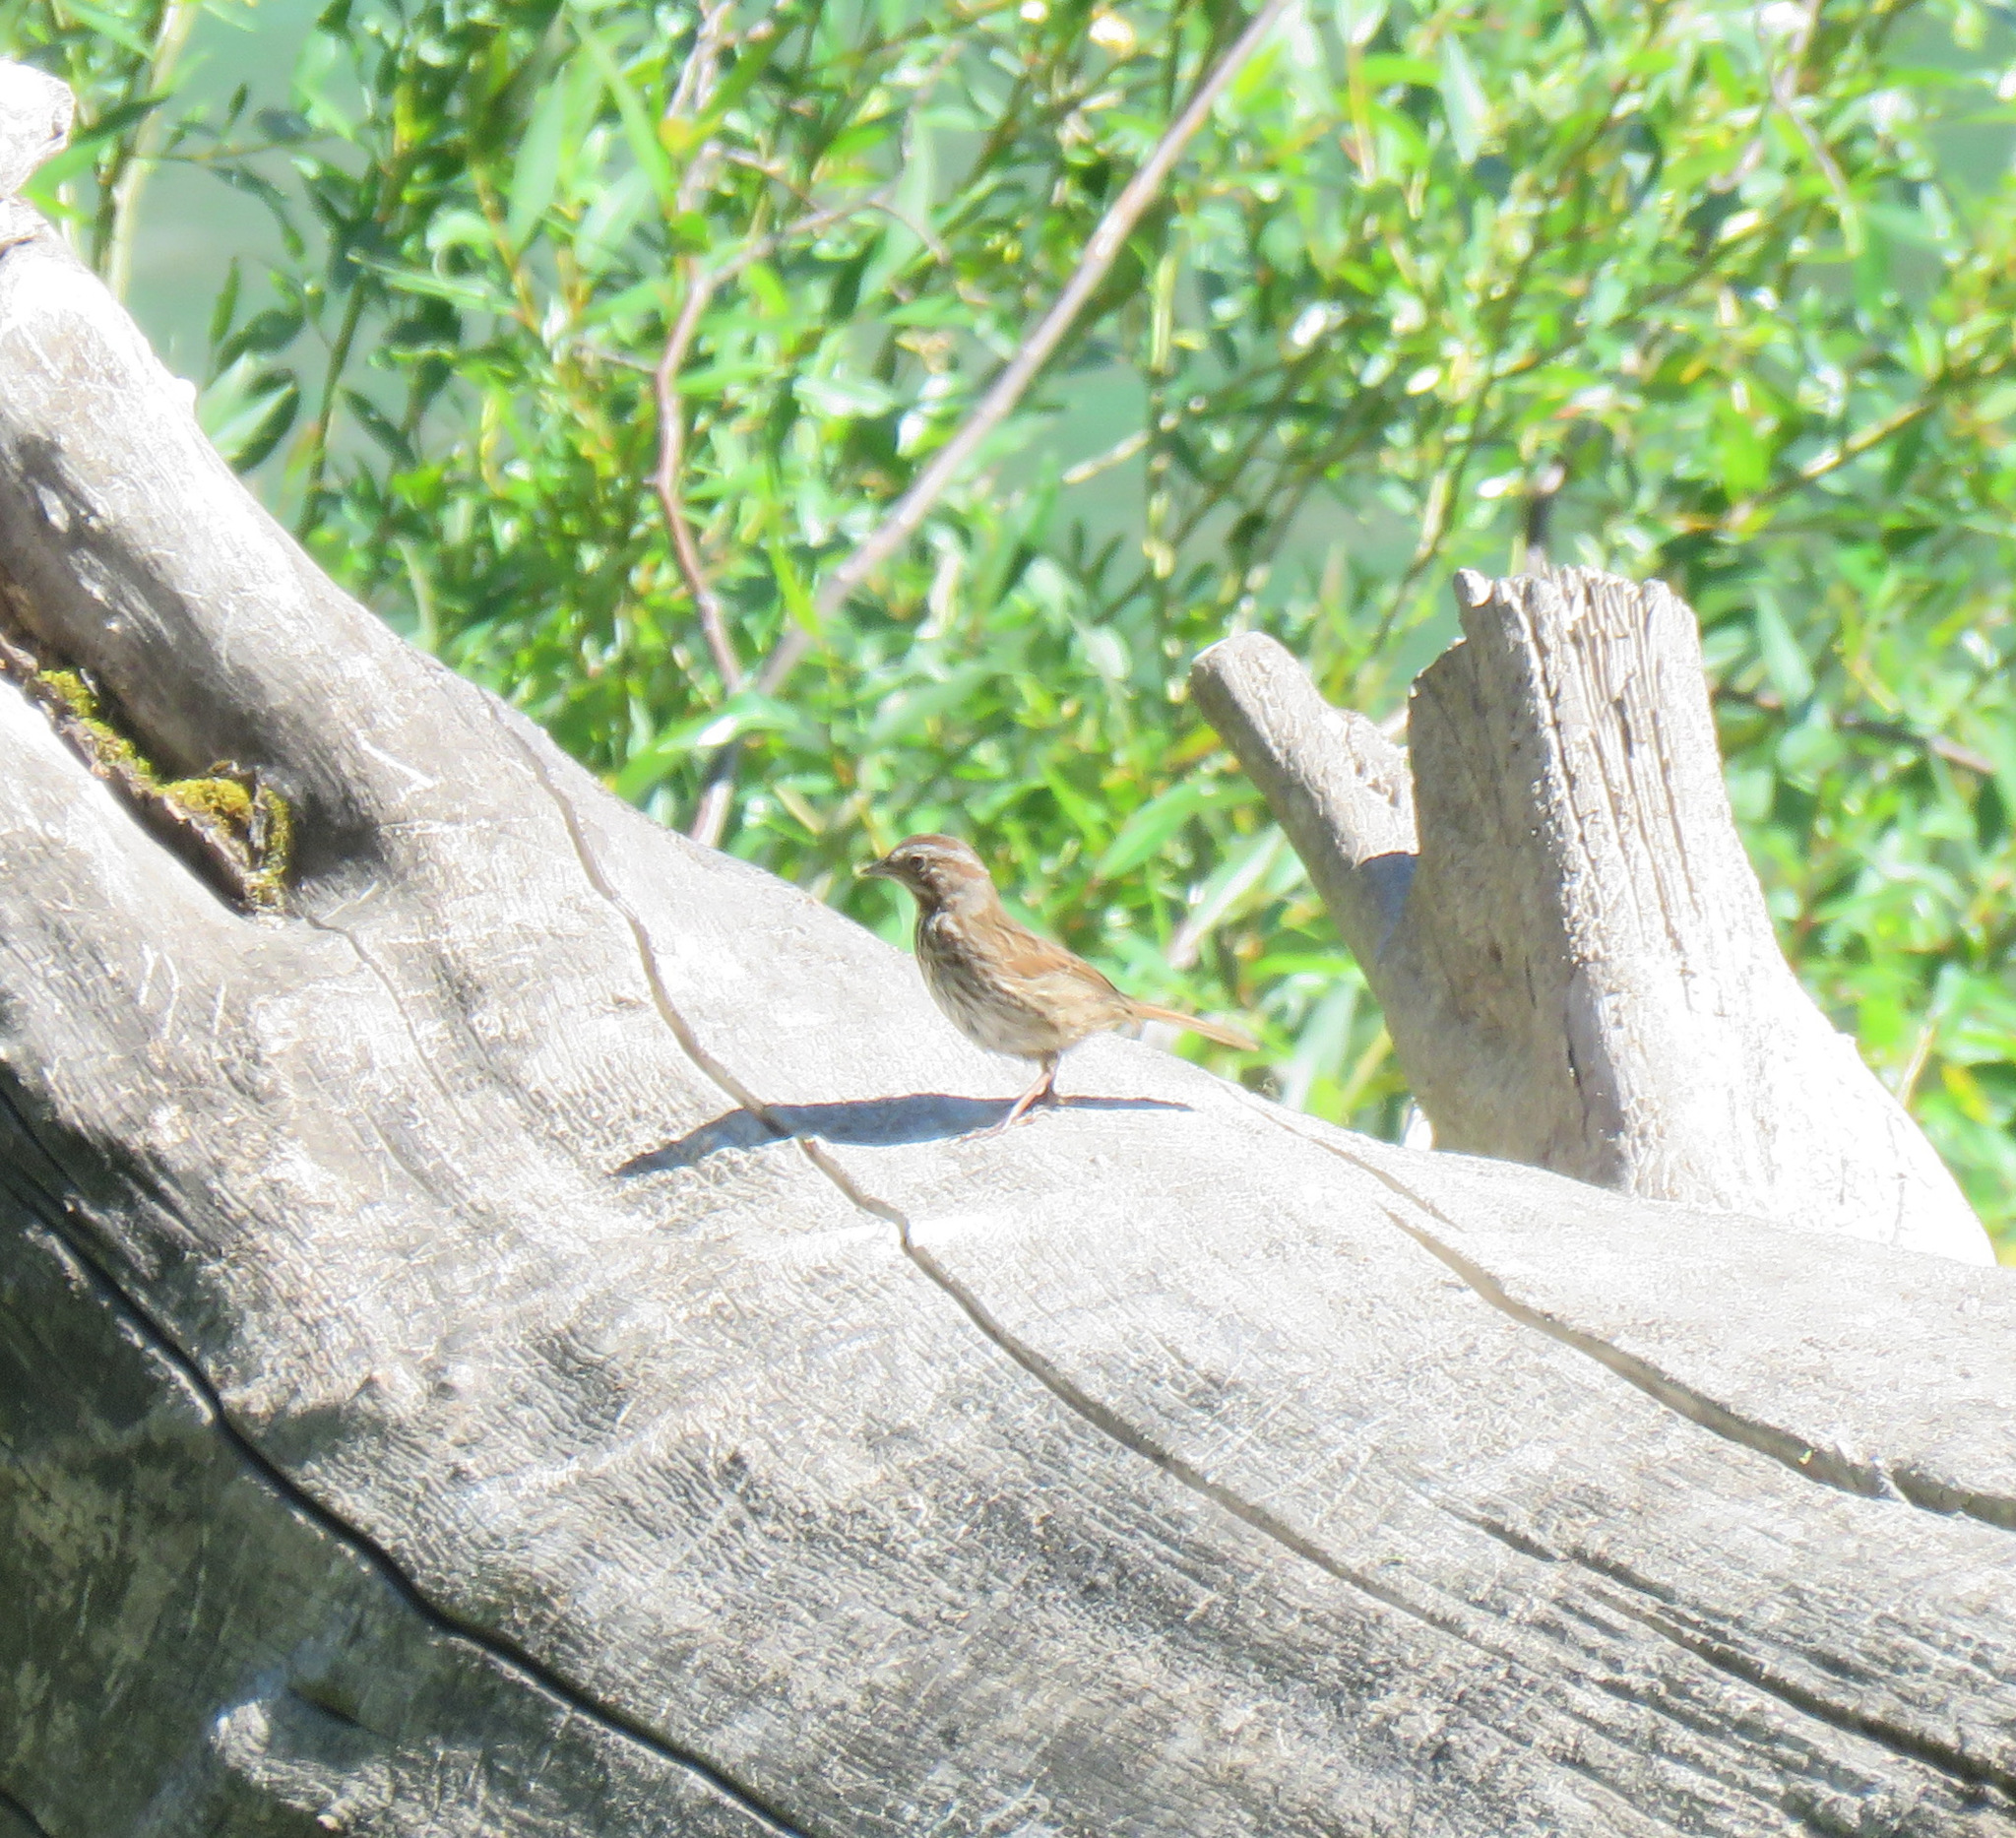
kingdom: Animalia
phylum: Chordata
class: Aves
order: Passeriformes
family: Passerellidae
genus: Melospiza
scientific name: Melospiza melodia
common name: Song sparrow
